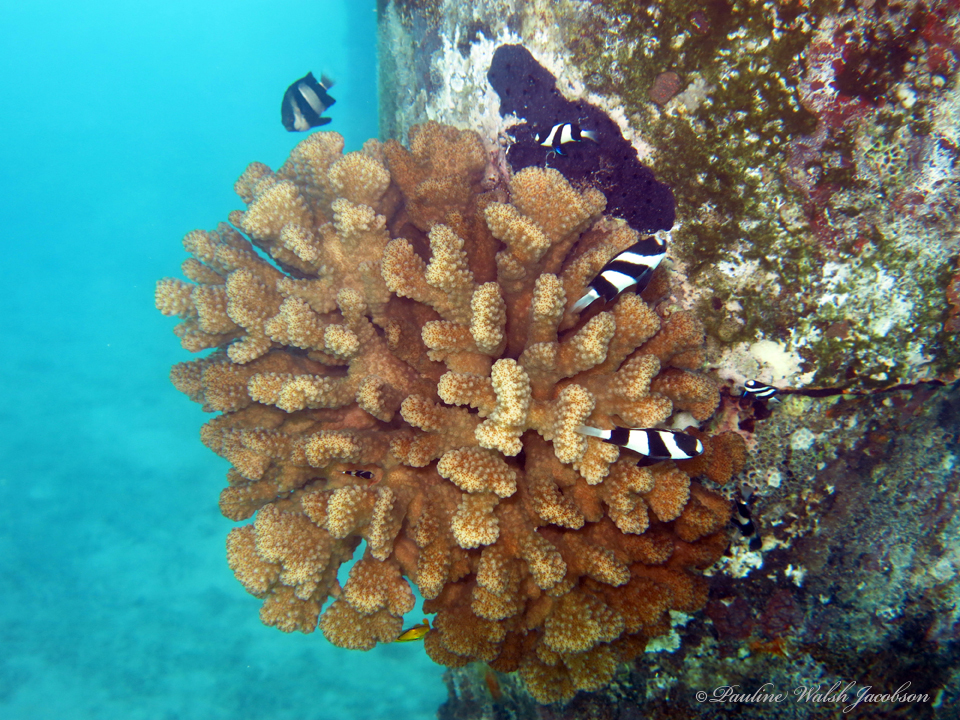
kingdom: Animalia
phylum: Chordata
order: Perciformes
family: Pomacentridae
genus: Dascyllus
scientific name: Dascyllus aruanus
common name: Humbug dascyllus
